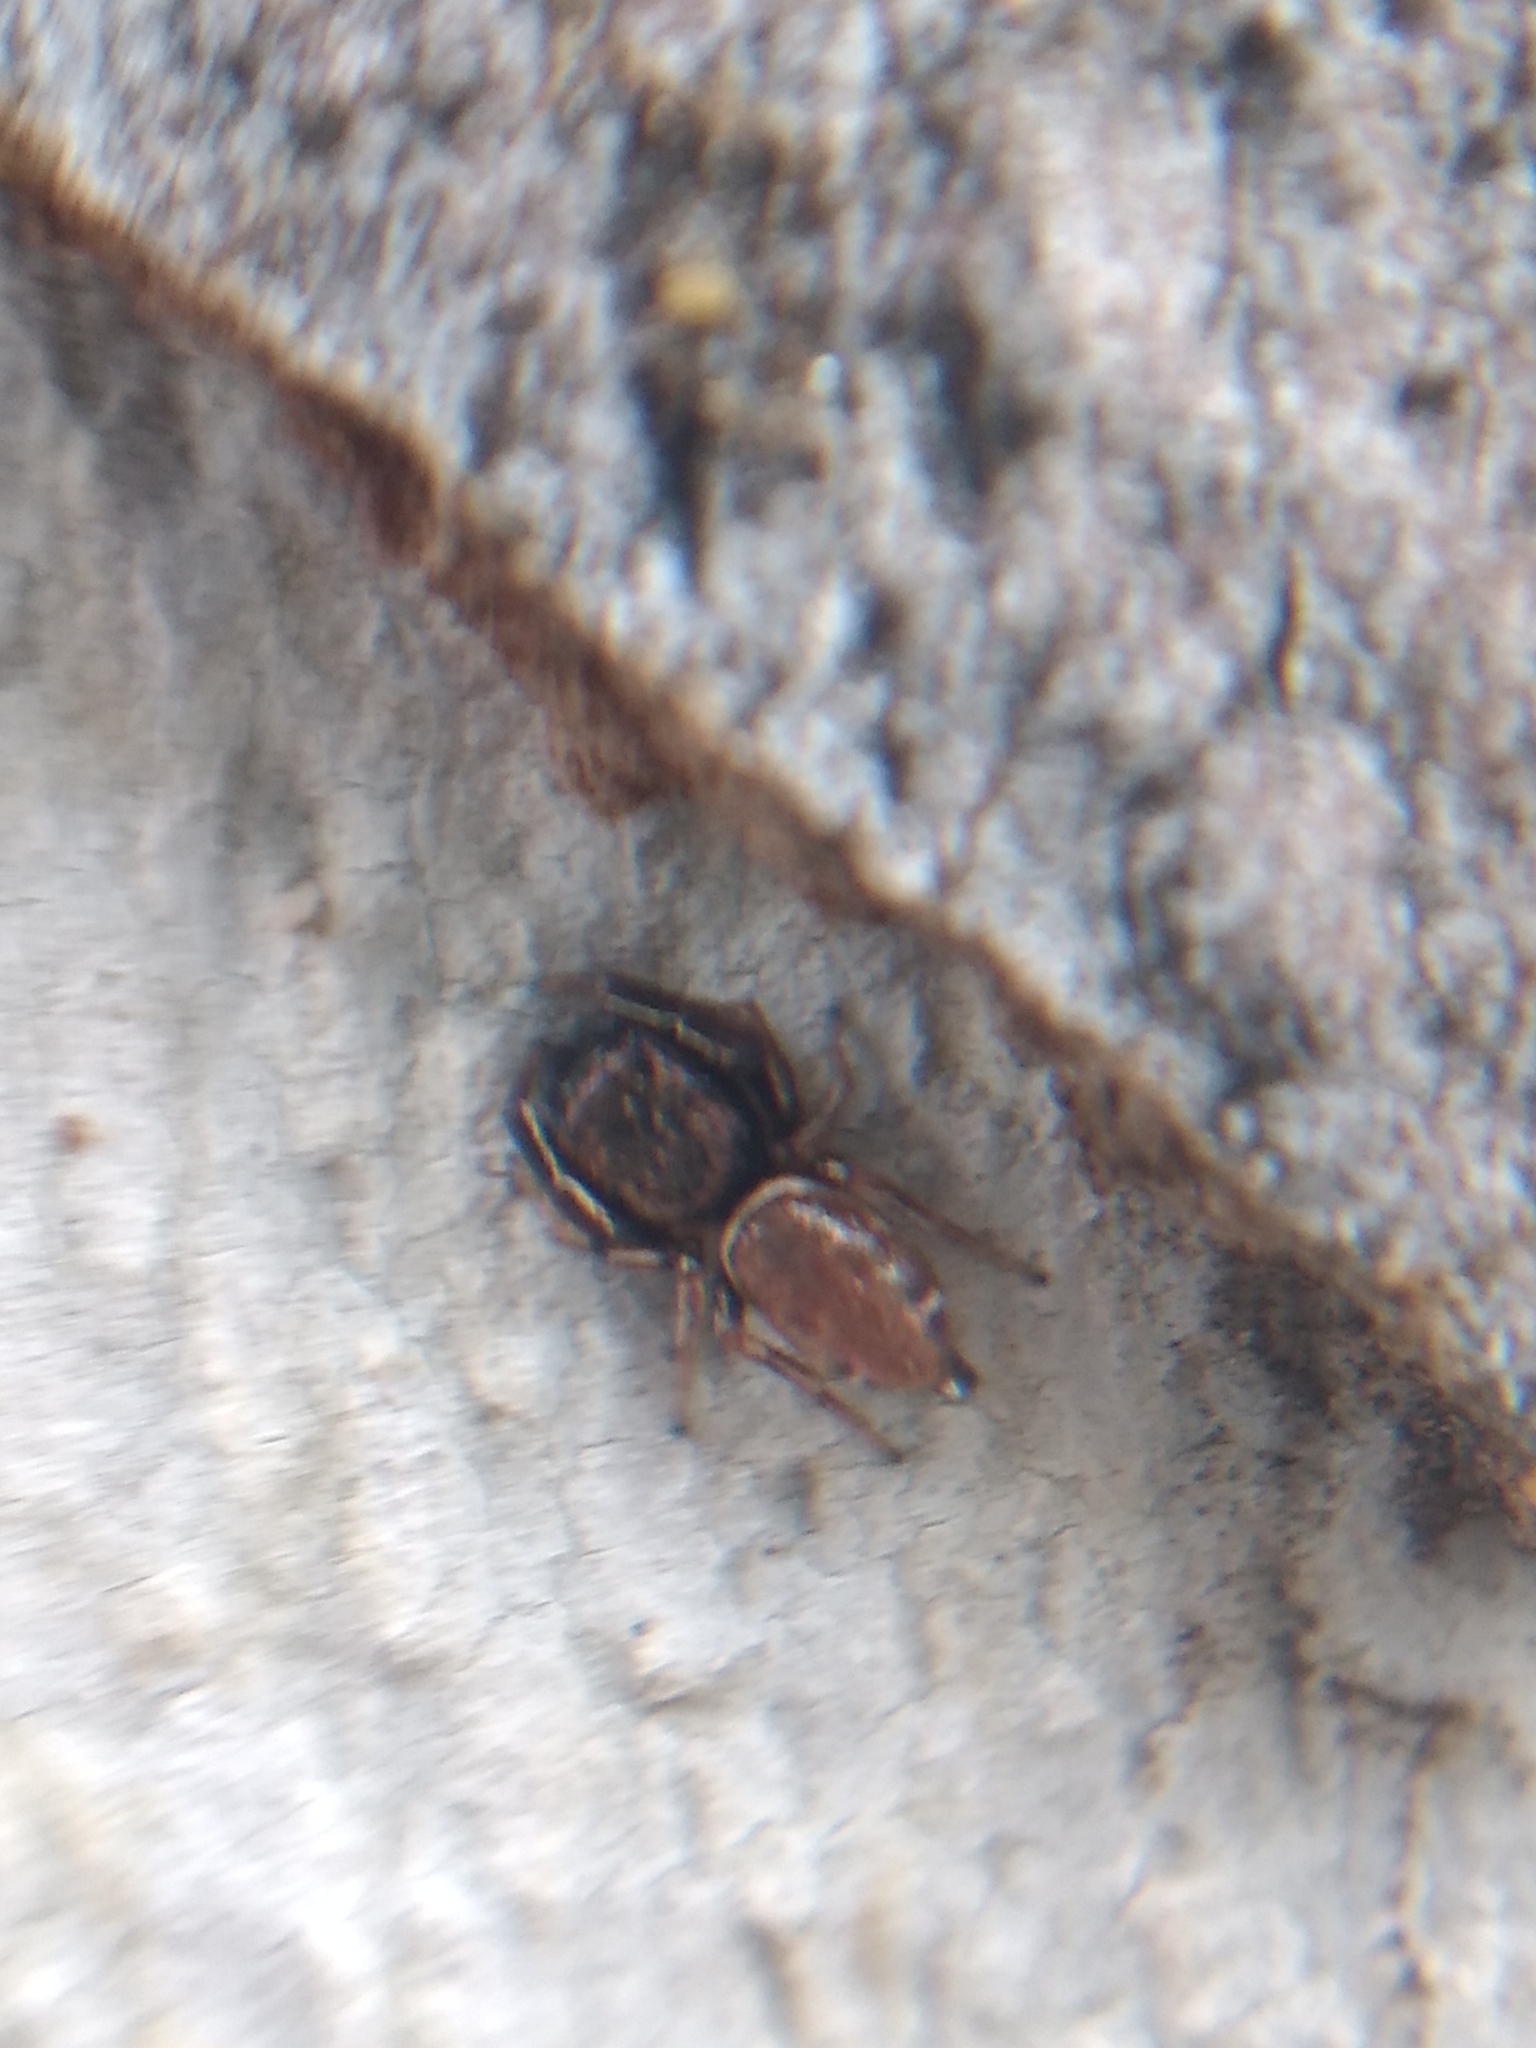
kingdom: Animalia
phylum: Arthropoda
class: Arachnida
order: Araneae
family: Salticidae
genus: Sassacus
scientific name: Sassacus vitis
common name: Jumping spiders
